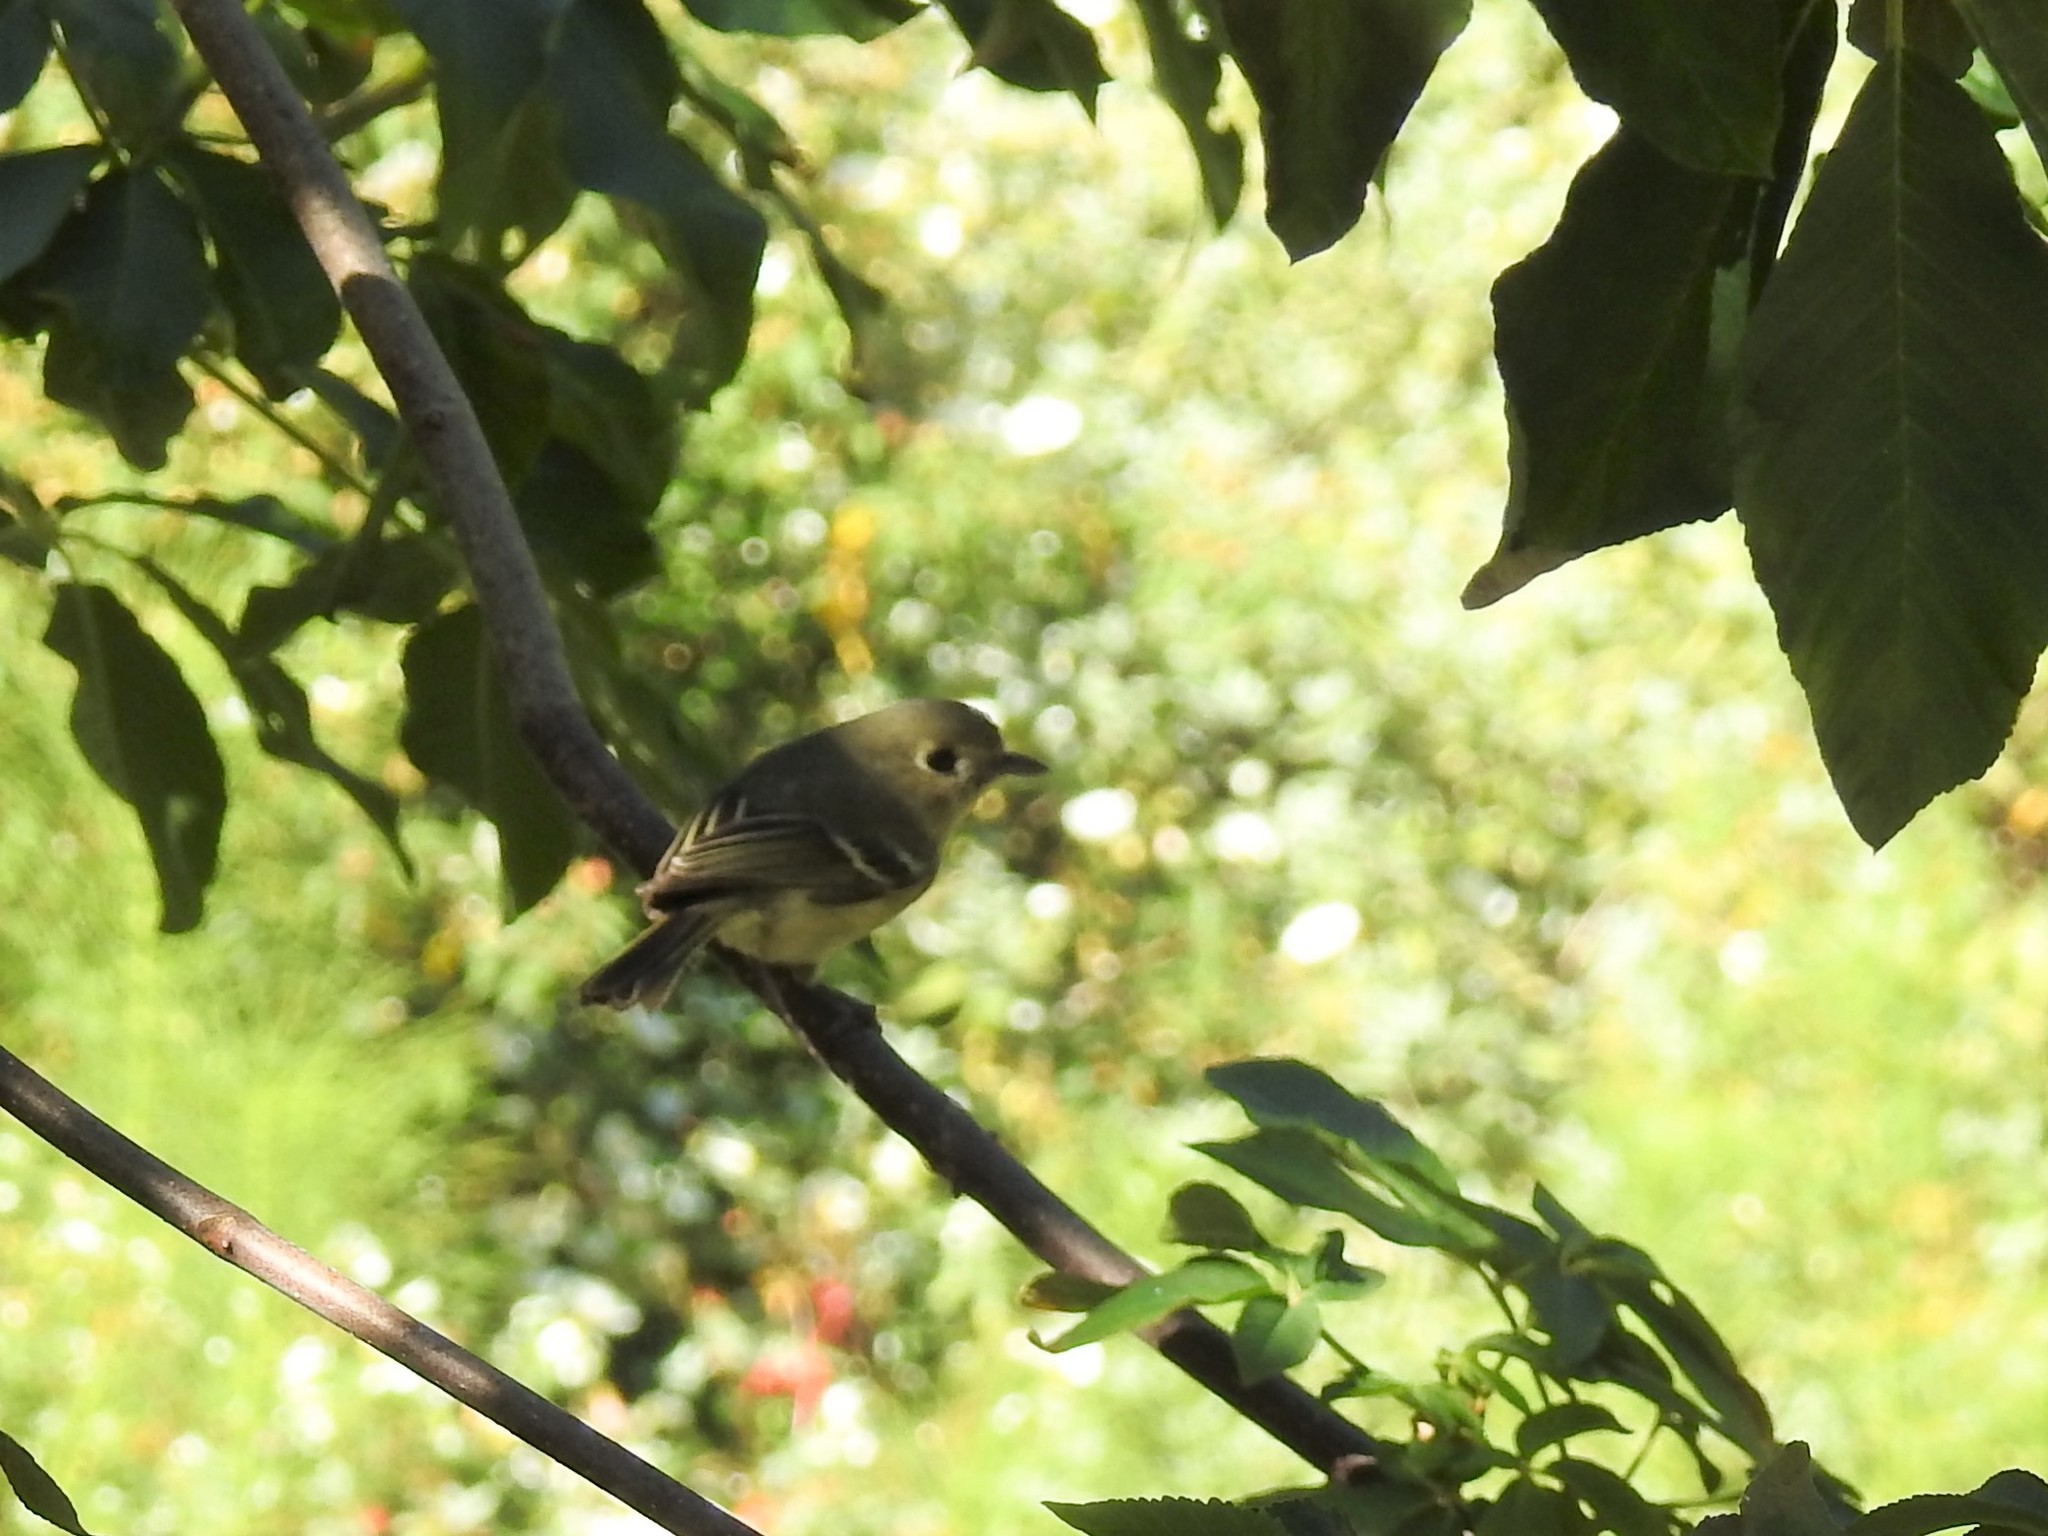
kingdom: Animalia
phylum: Chordata
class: Aves
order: Passeriformes
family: Vireonidae
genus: Vireo
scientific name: Vireo huttoni
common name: Hutton's vireo
